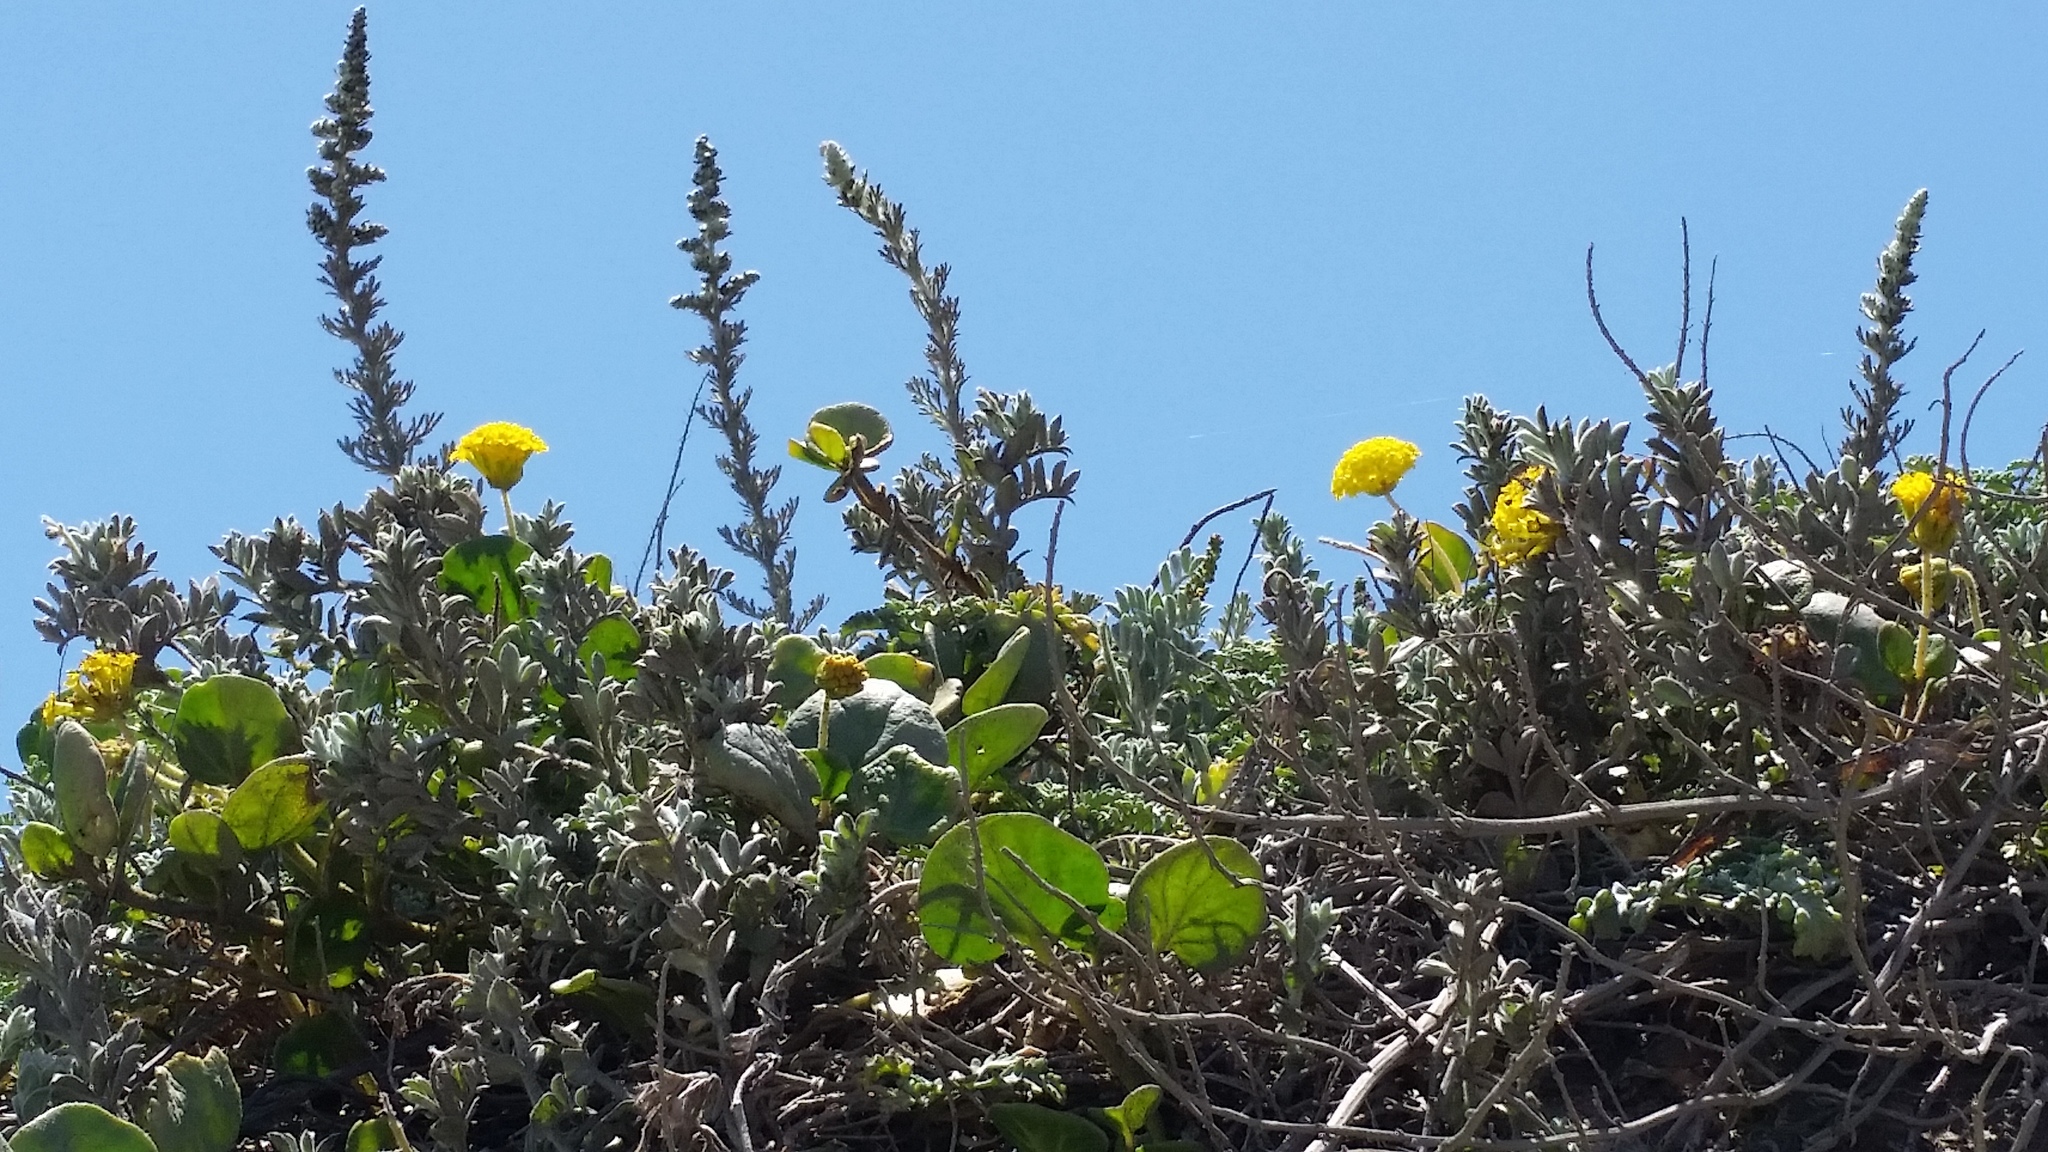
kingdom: Plantae
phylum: Tracheophyta
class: Magnoliopsida
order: Caryophyllales
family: Nyctaginaceae
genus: Abronia
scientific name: Abronia latifolia
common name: Yellow sand-verbena
